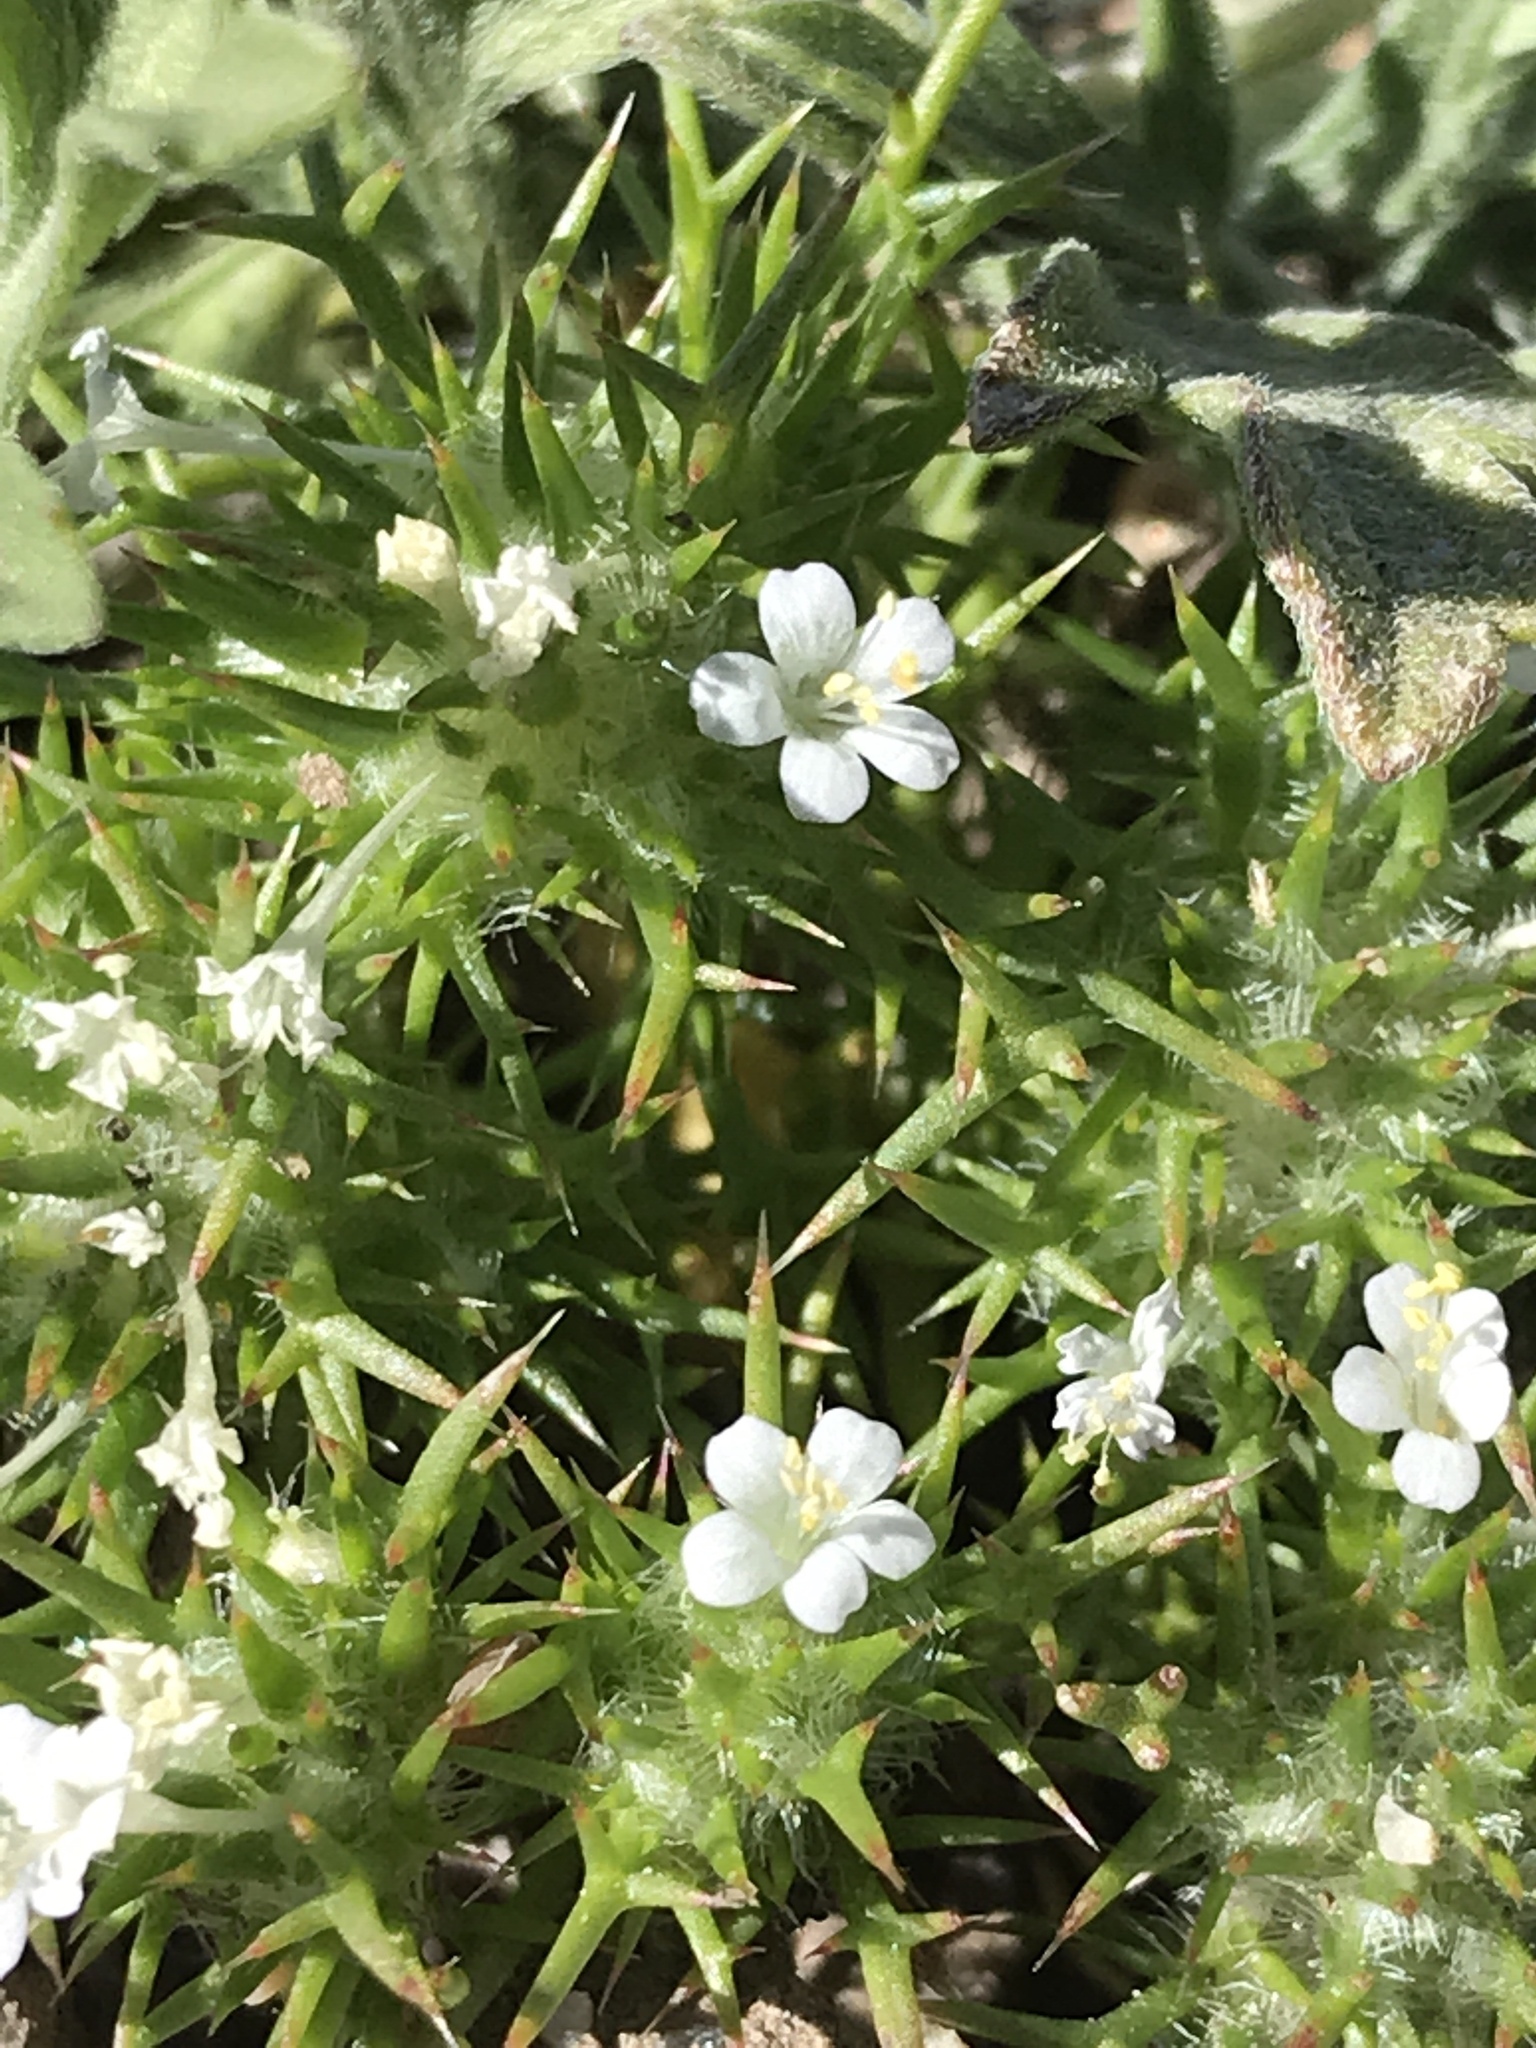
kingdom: Plantae
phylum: Tracheophyta
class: Magnoliopsida
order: Ericales
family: Polemoniaceae
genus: Navarretia
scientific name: Navarretia intertexta
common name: Needle-leaved navarretia
